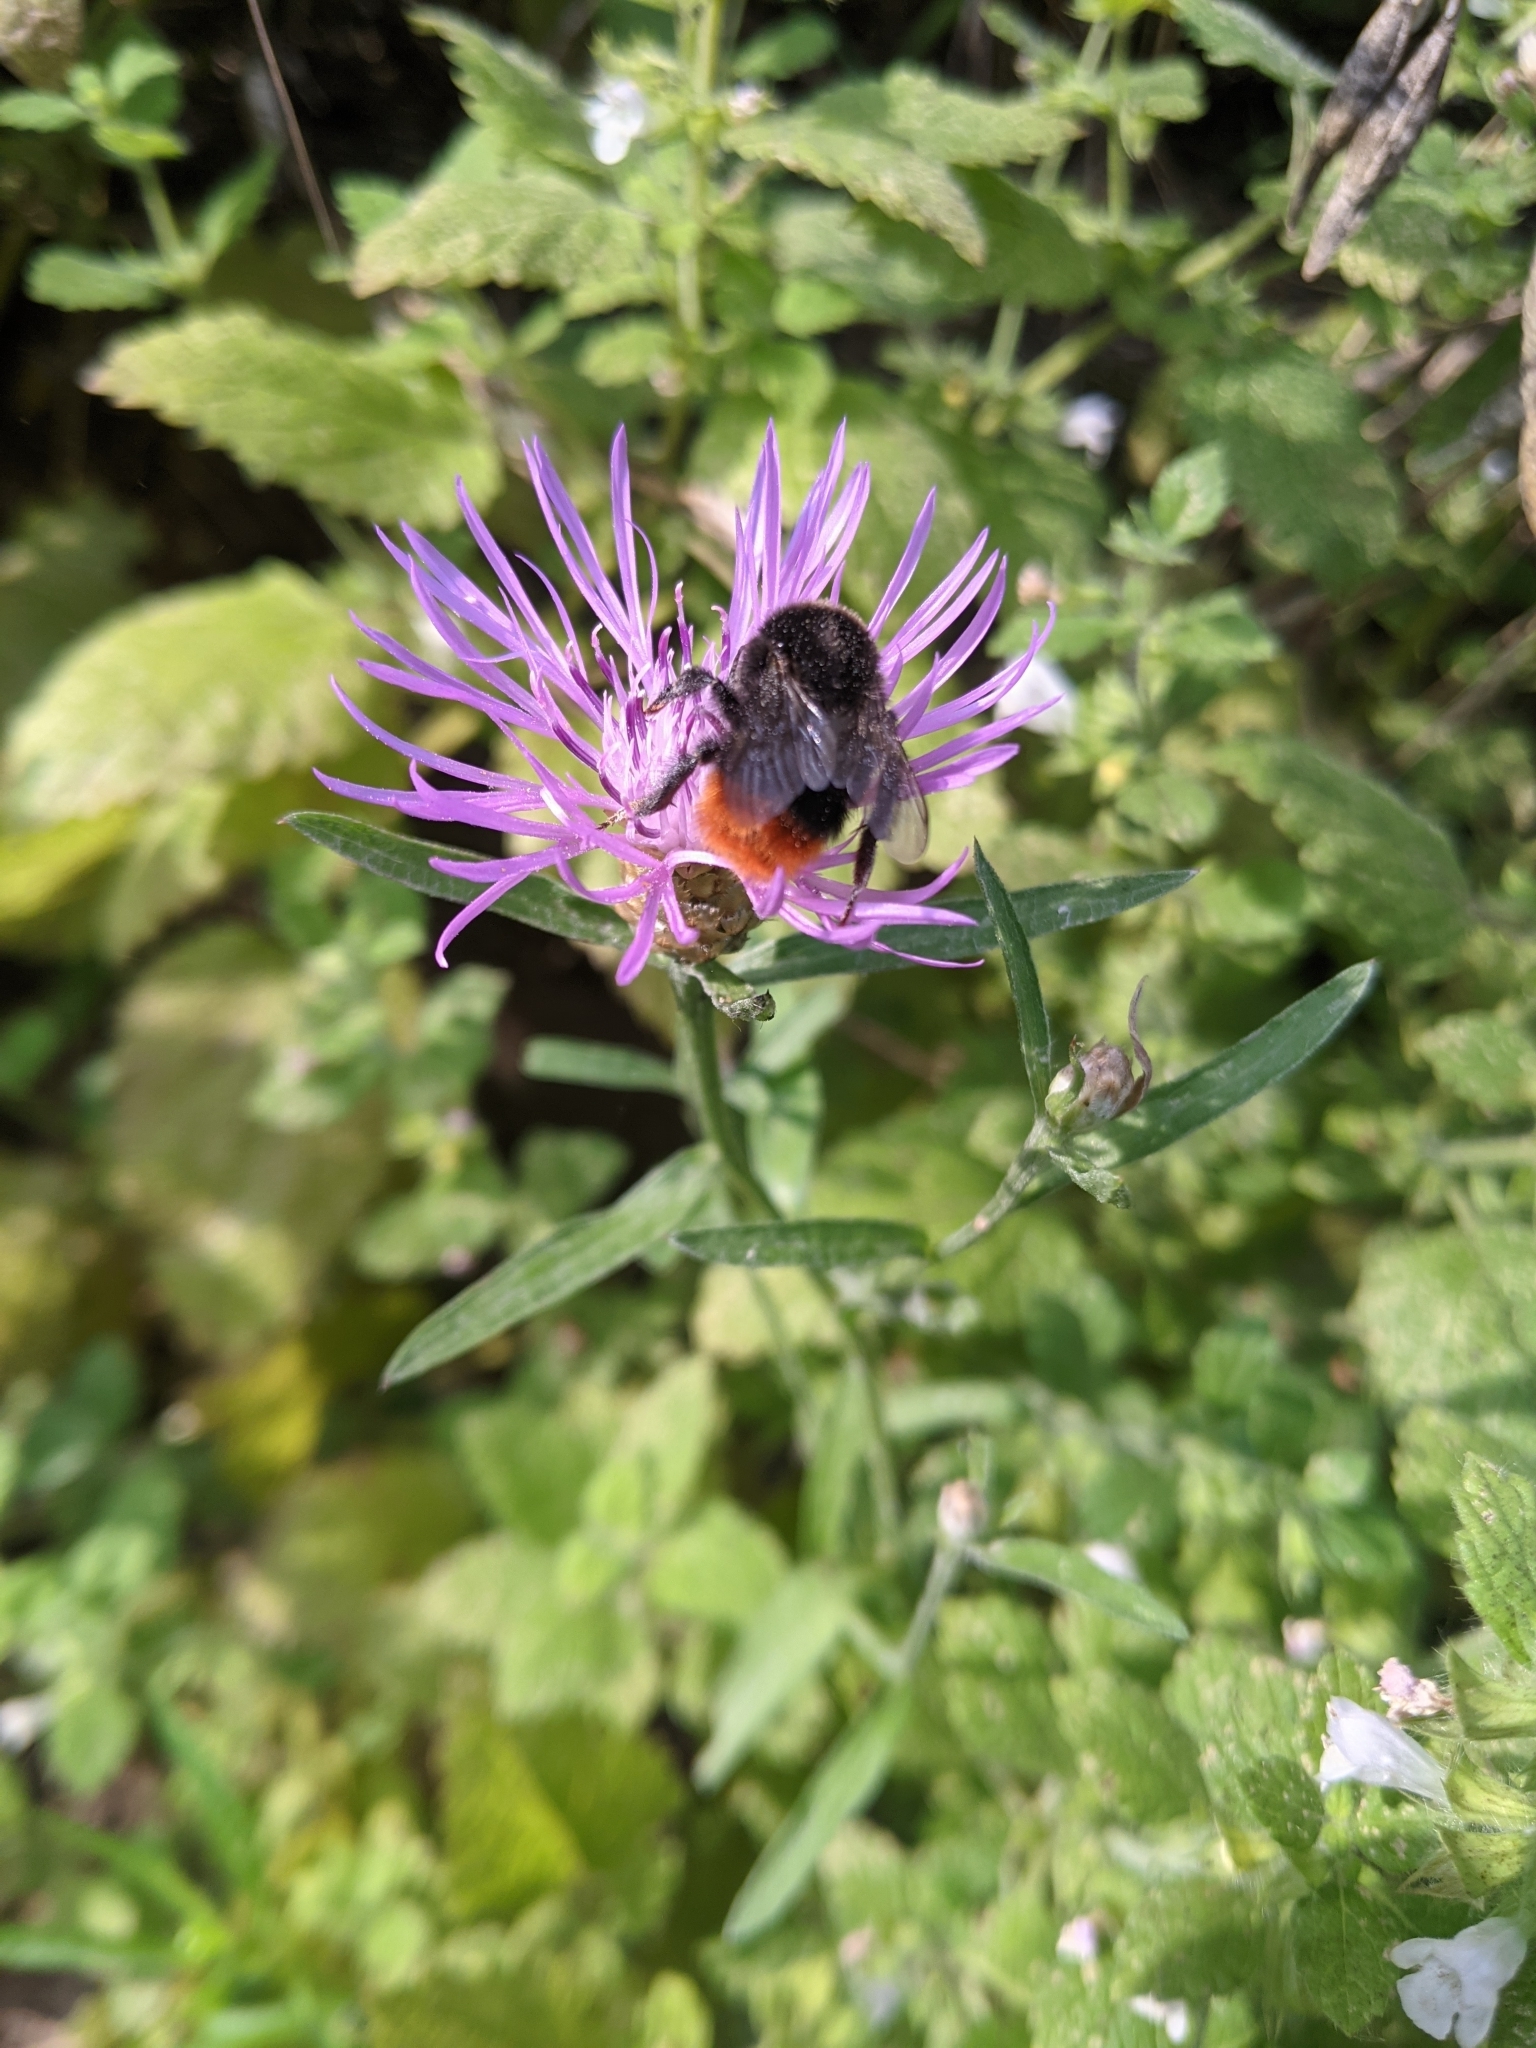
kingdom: Animalia
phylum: Arthropoda
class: Insecta
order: Hymenoptera
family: Apidae
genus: Bombus
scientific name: Bombus lapidarius
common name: Large red-tailed humble-bee
